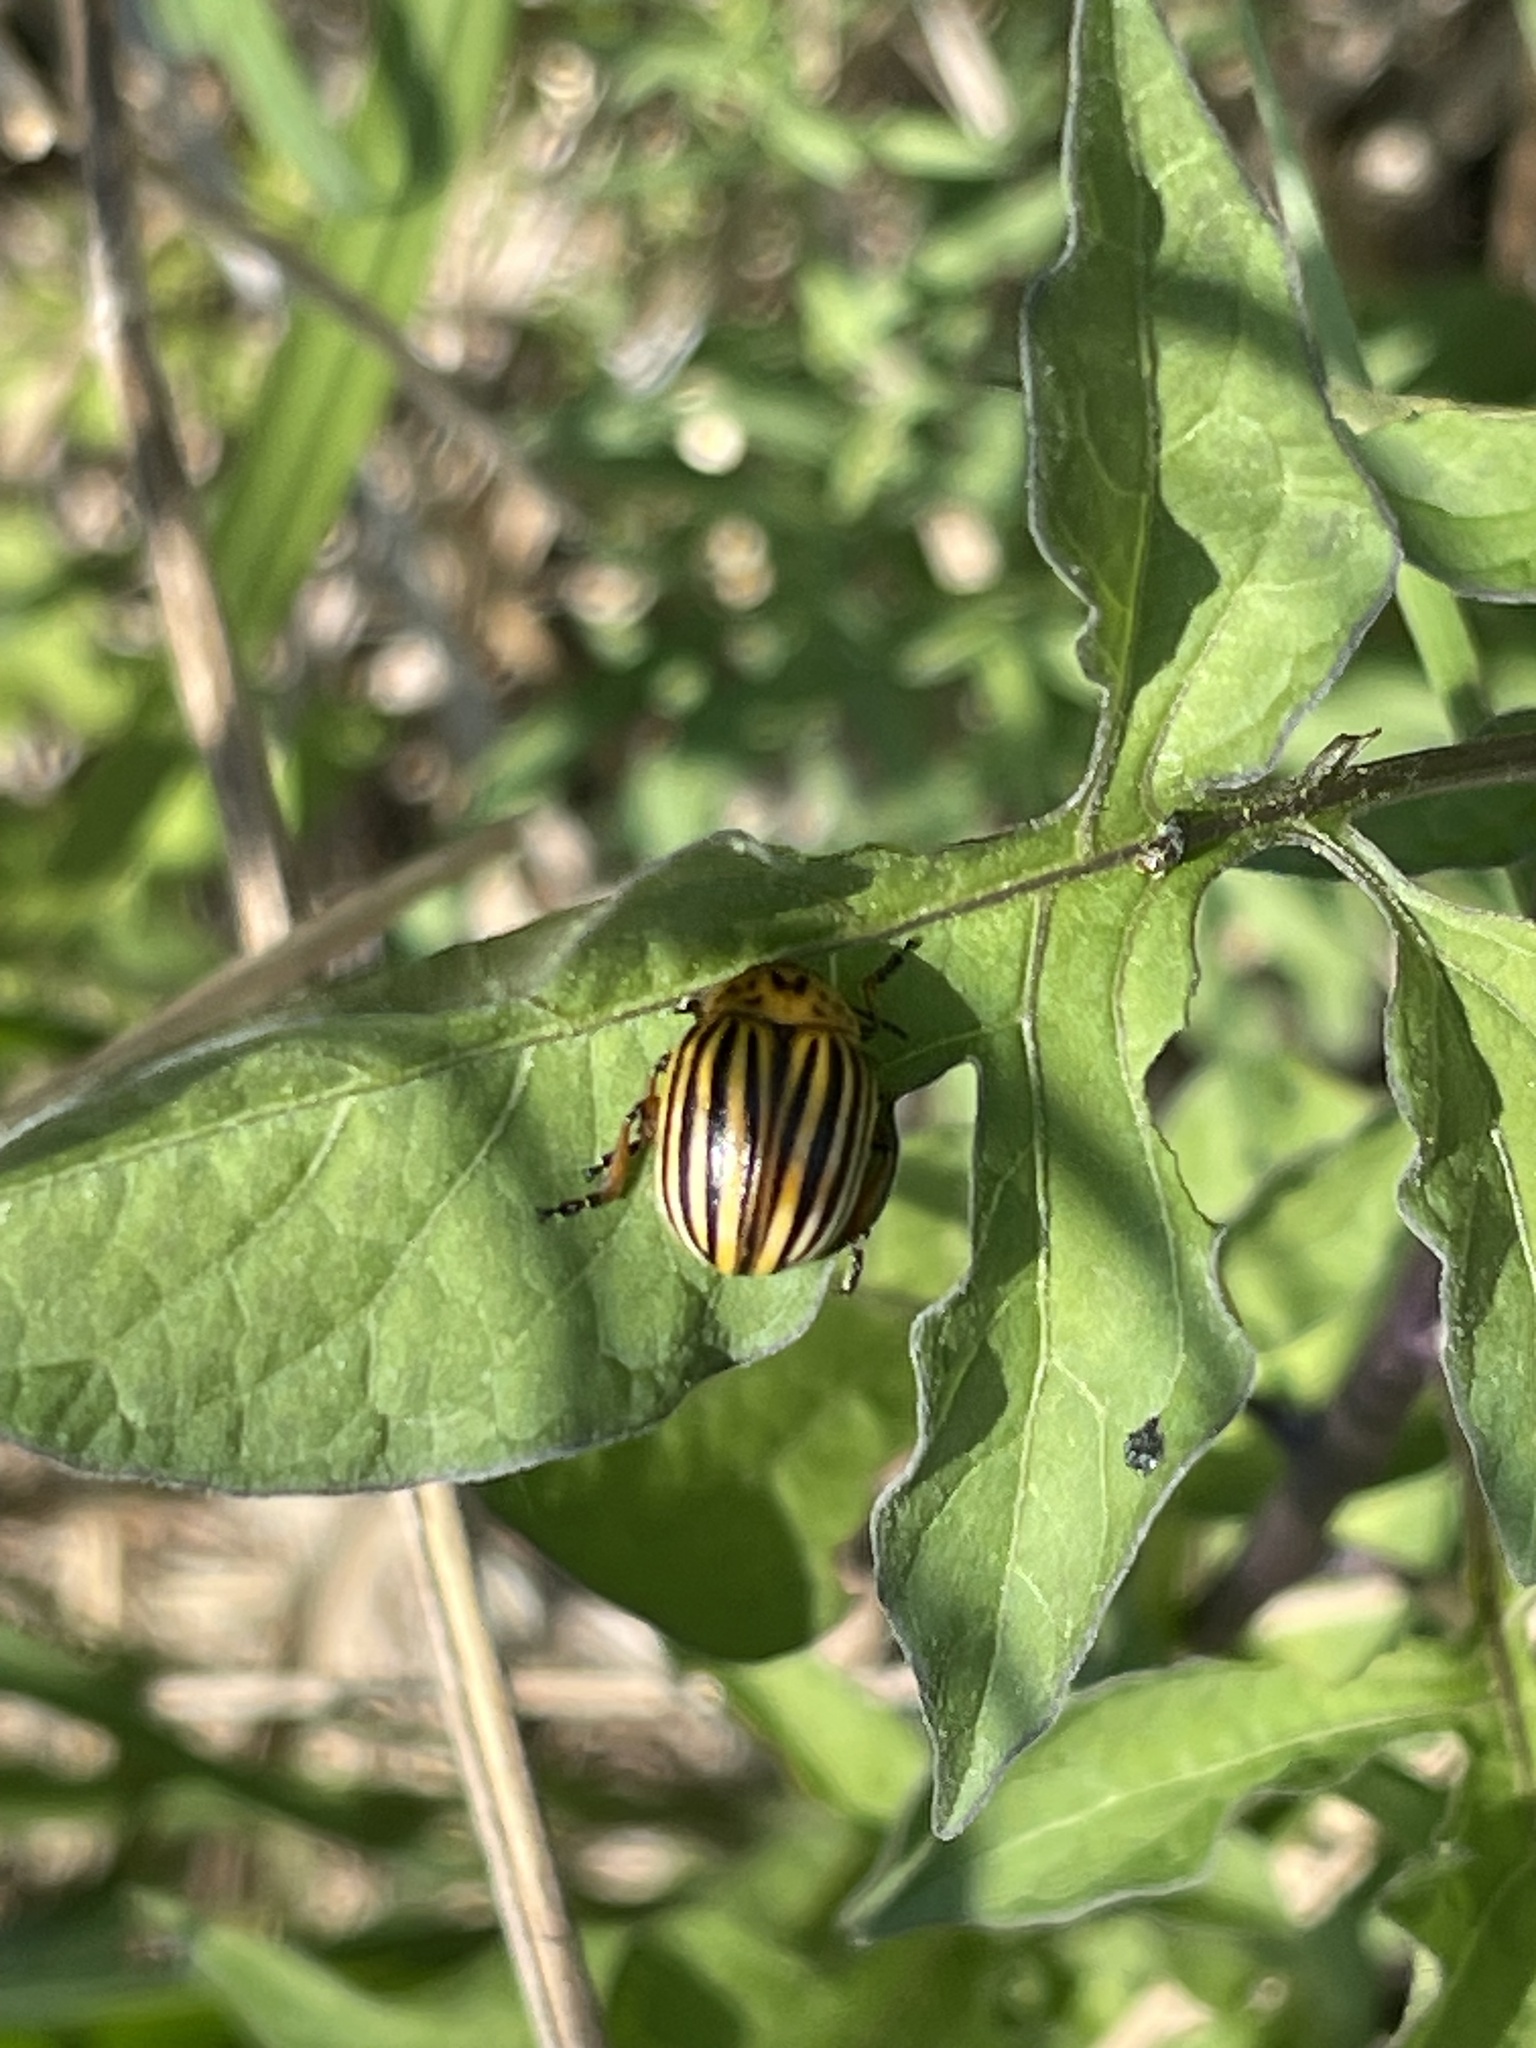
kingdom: Animalia
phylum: Arthropoda
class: Insecta
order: Coleoptera
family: Chrysomelidae
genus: Leptinotarsa
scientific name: Leptinotarsa decemlineata
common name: Colorado potato beetle
